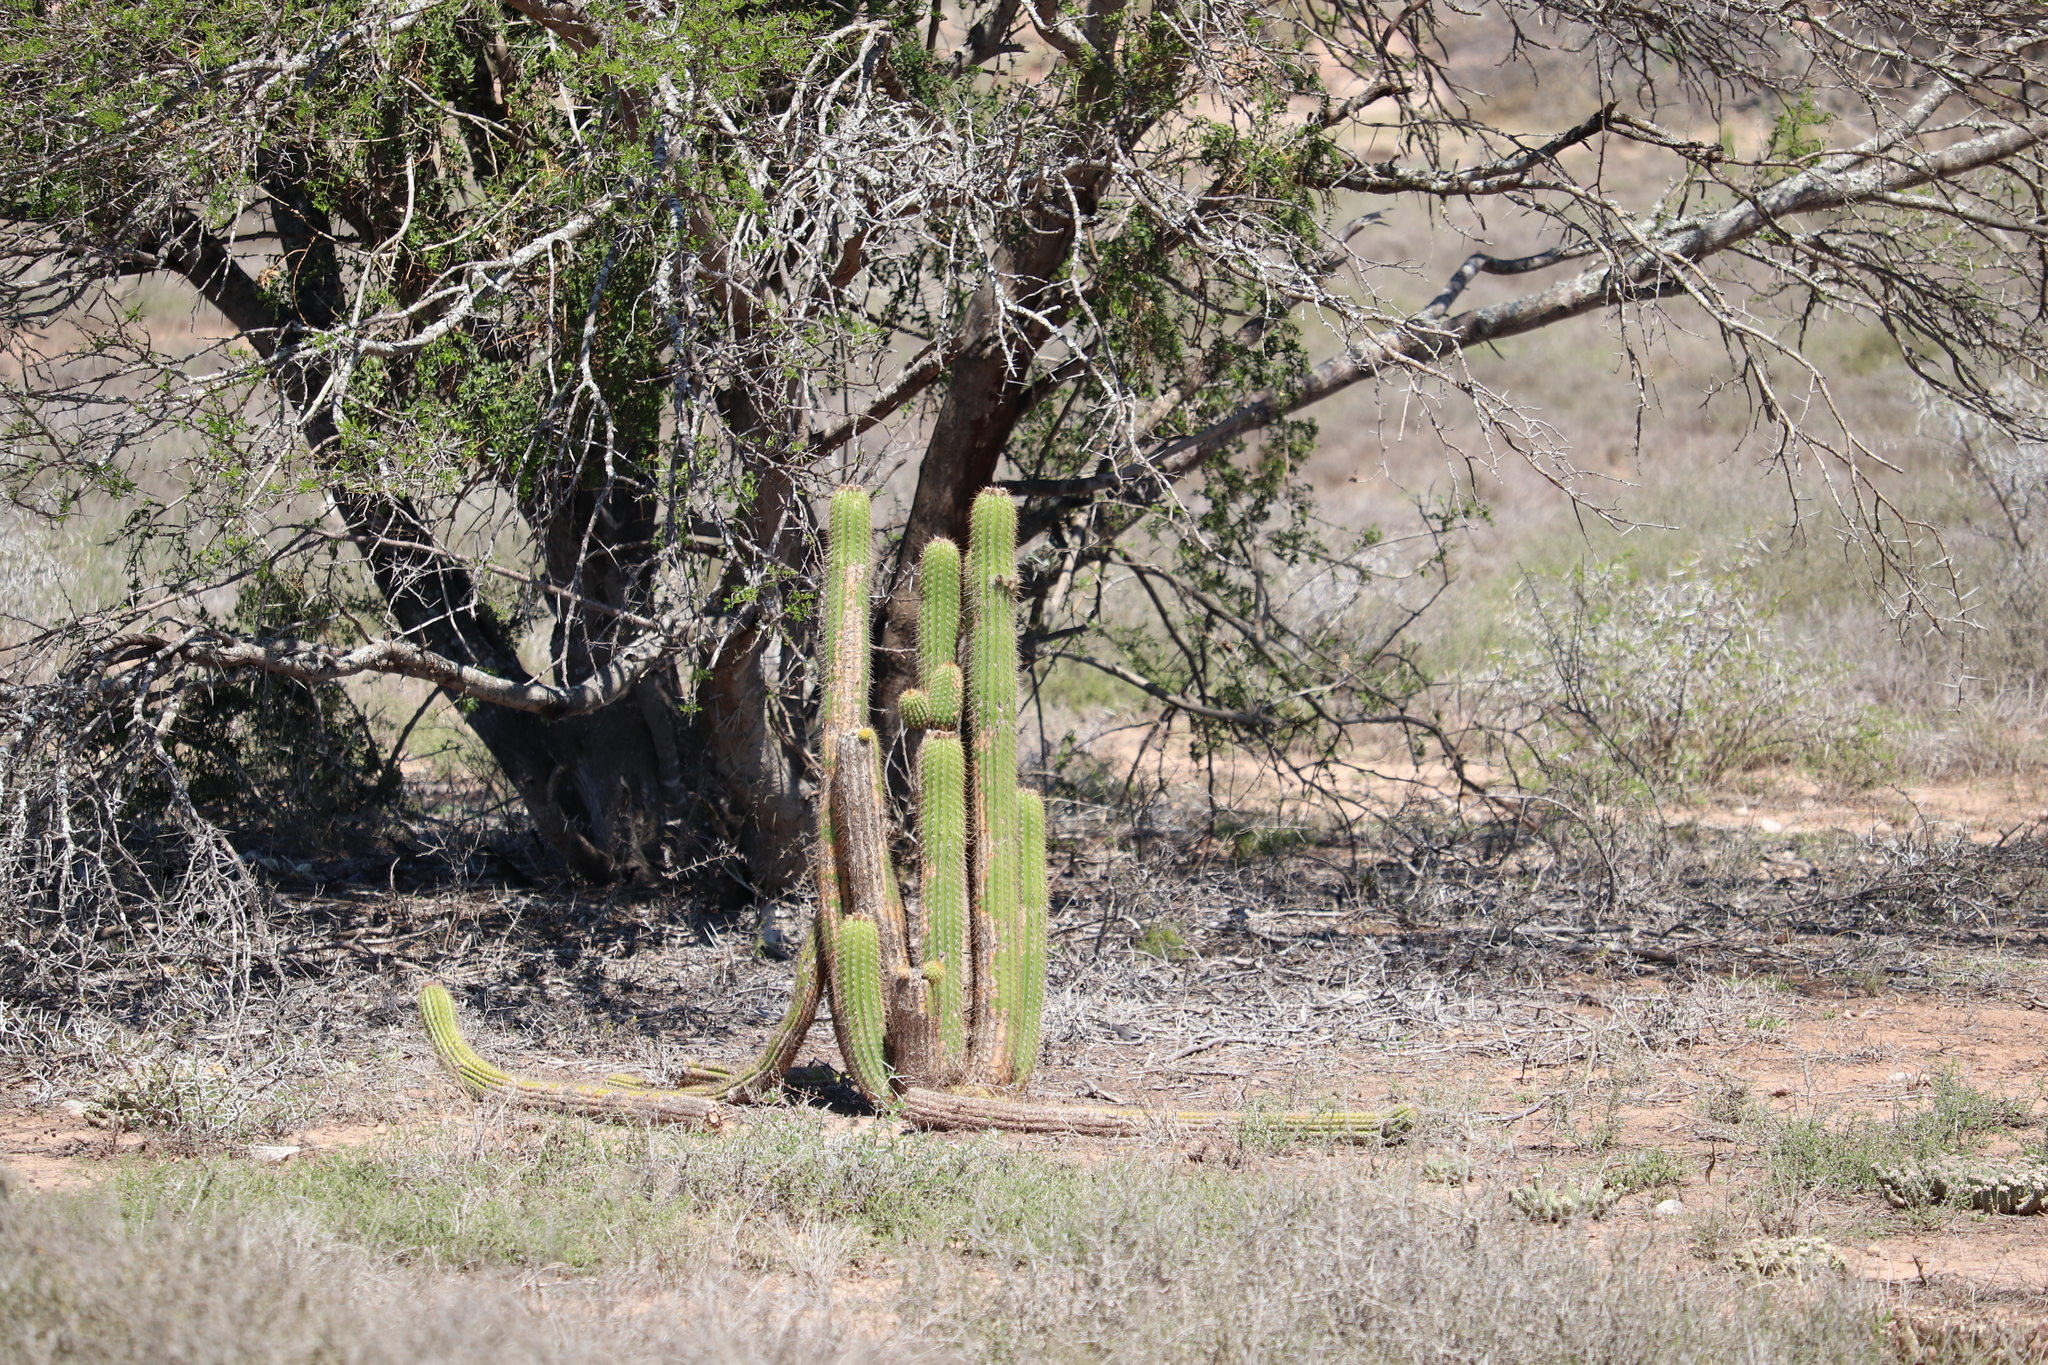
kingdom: Plantae
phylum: Tracheophyta
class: Magnoliopsida
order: Caryophyllales
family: Cactaceae
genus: Soehrensia
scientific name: Soehrensia spachiana
